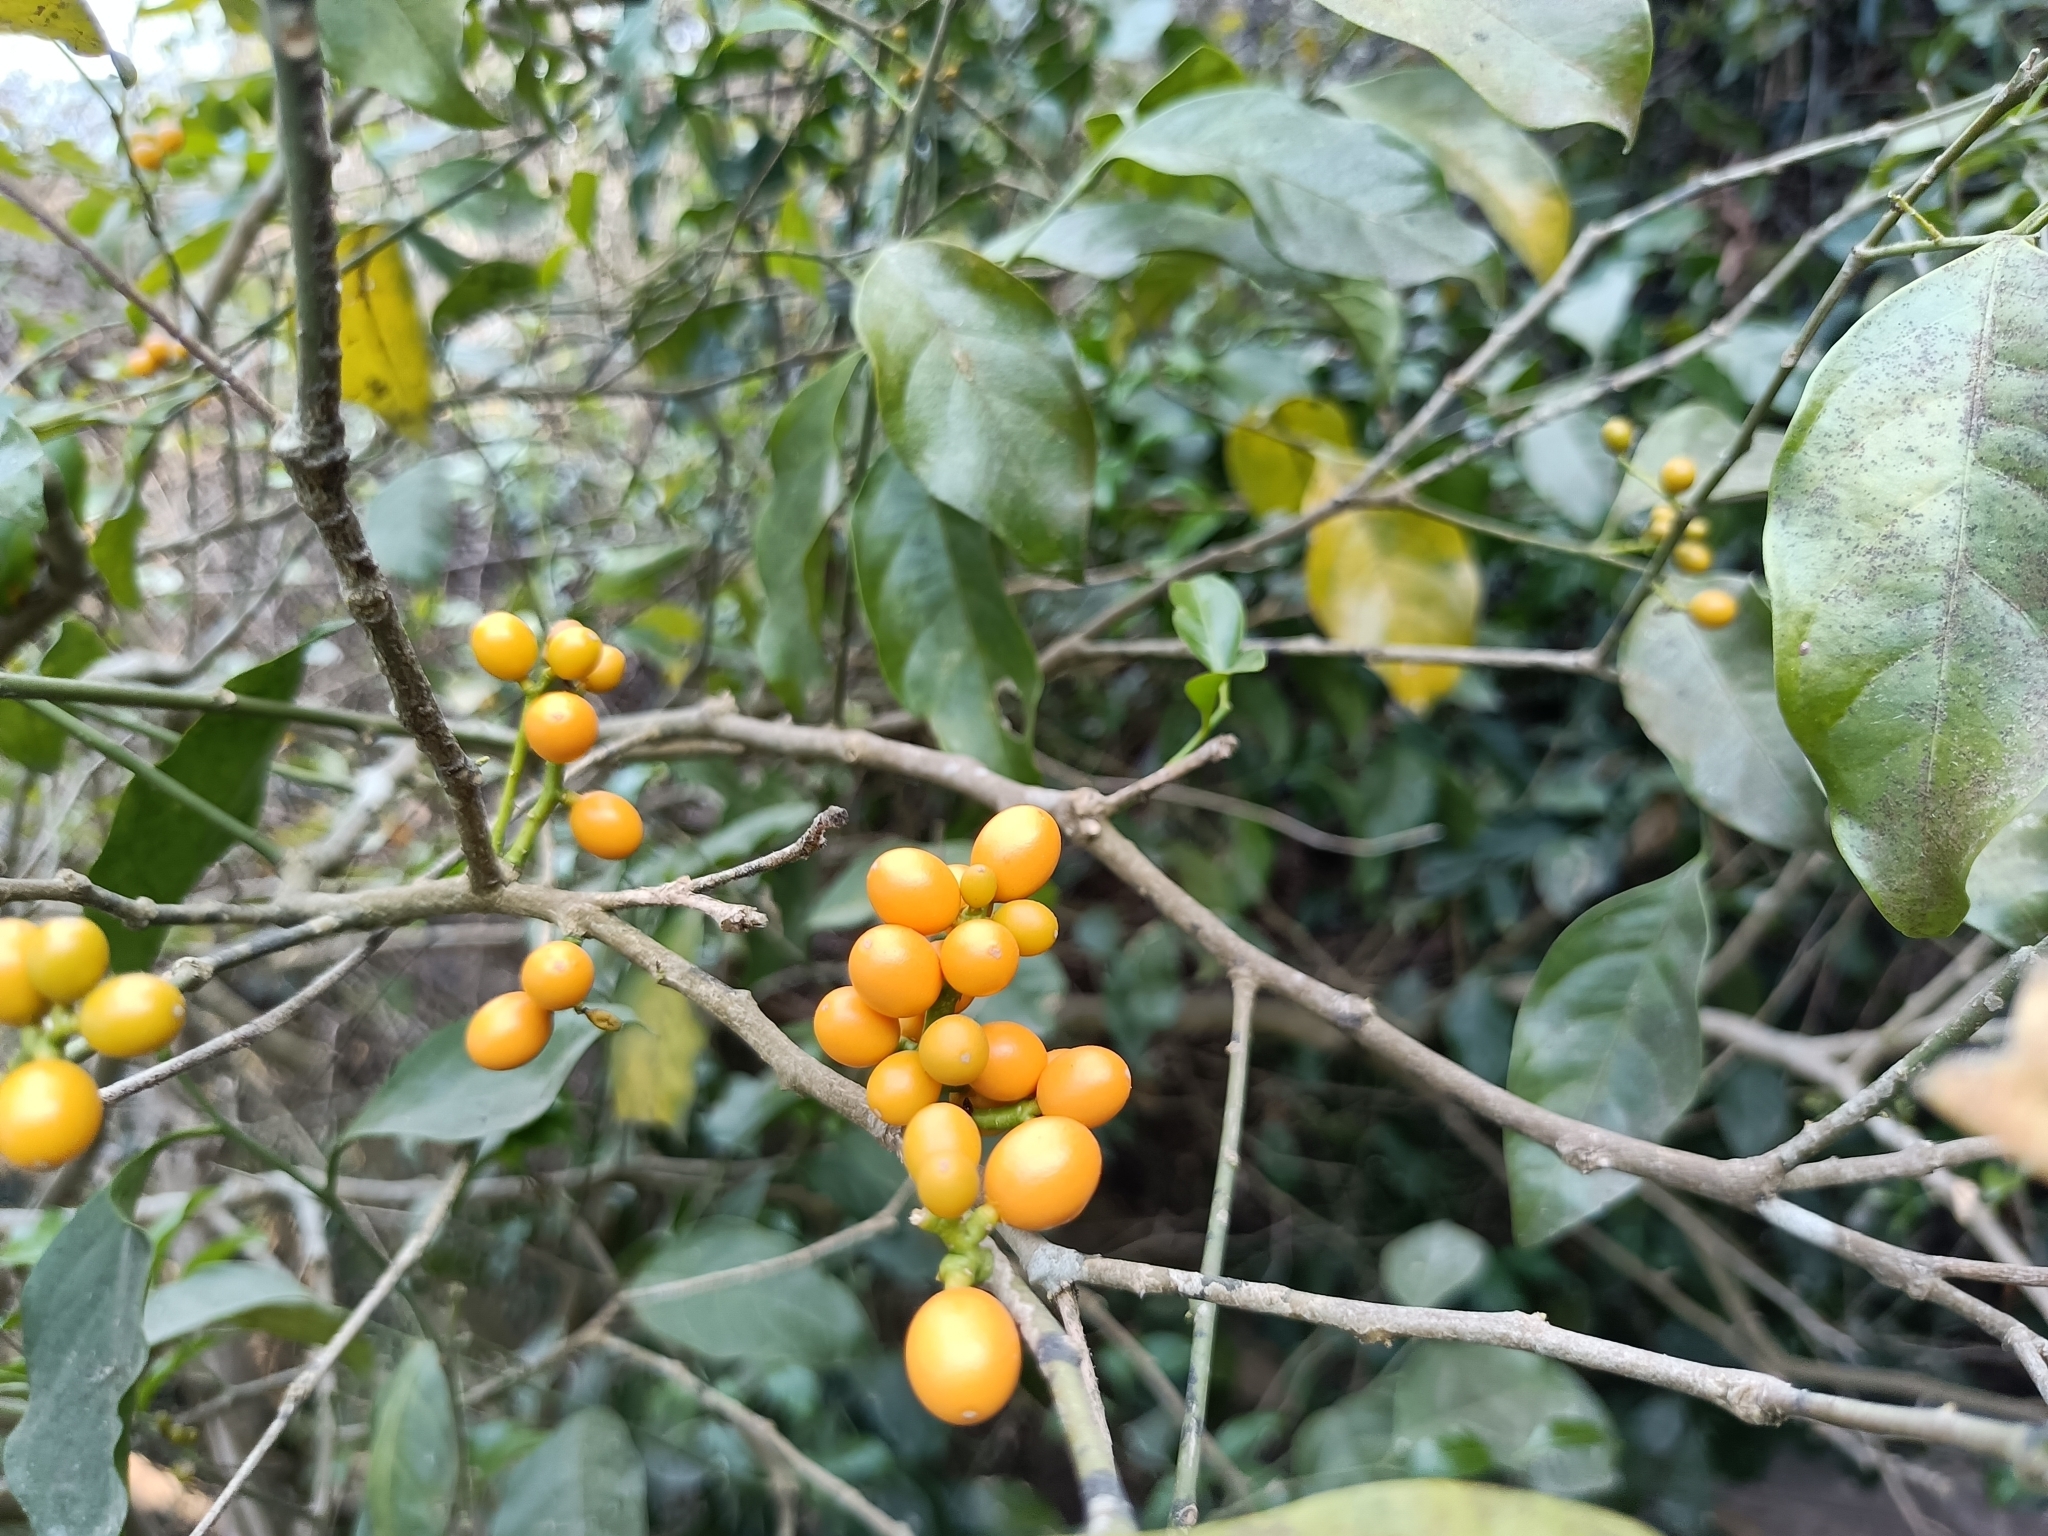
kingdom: Plantae
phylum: Tracheophyta
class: Magnoliopsida
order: Santalales
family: Opiliaceae
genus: Champereia
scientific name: Champereia manillana
